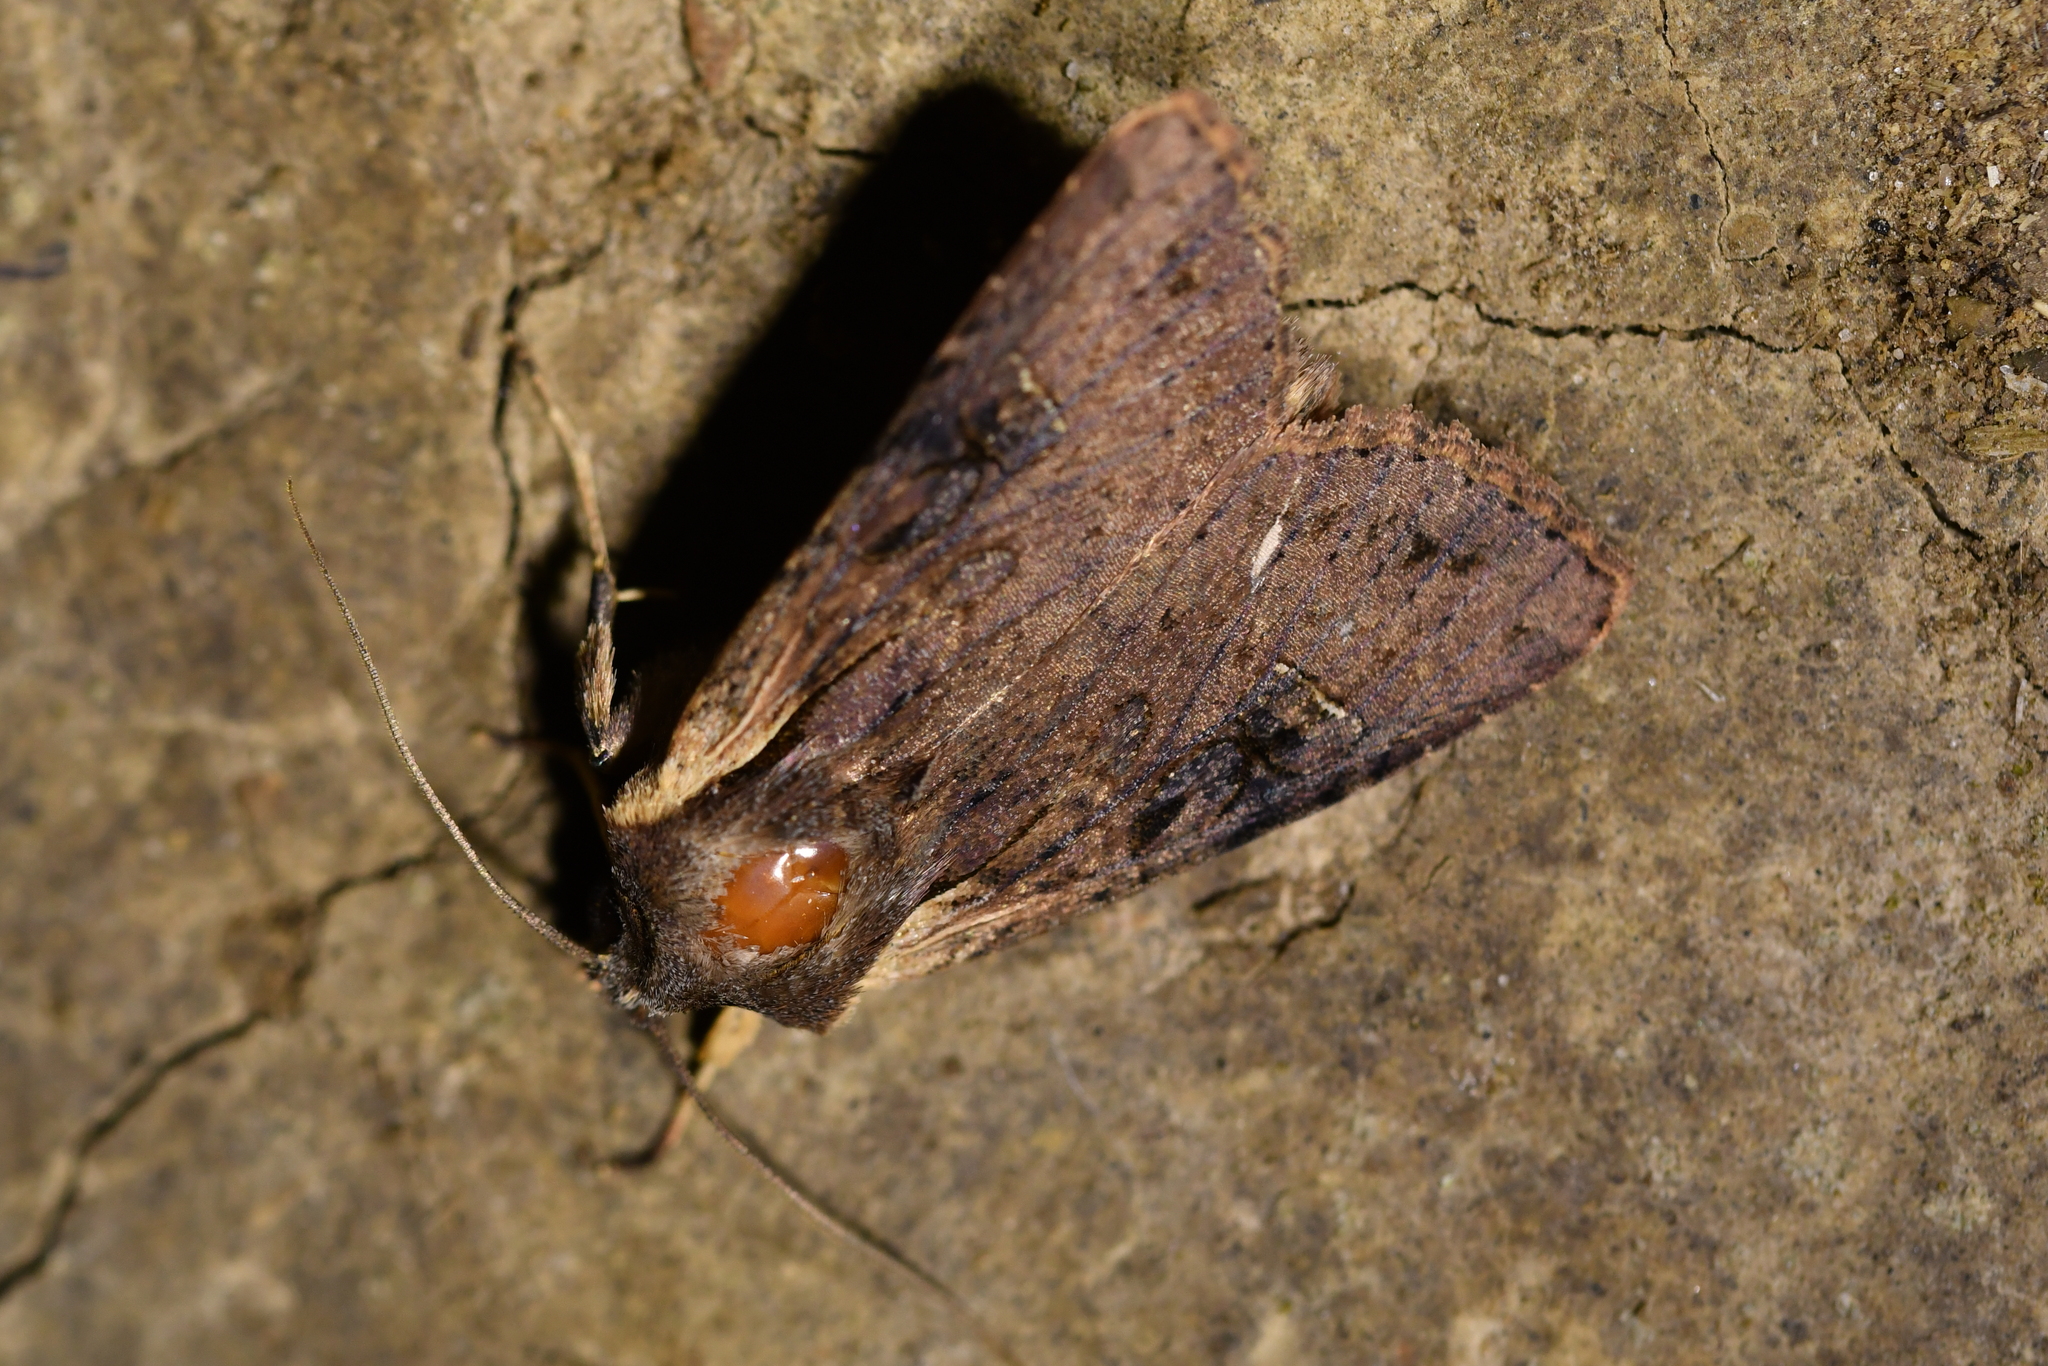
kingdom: Animalia
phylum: Arthropoda
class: Insecta
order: Lepidoptera
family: Noctuidae
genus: Ichneutica
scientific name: Ichneutica omoplaca
